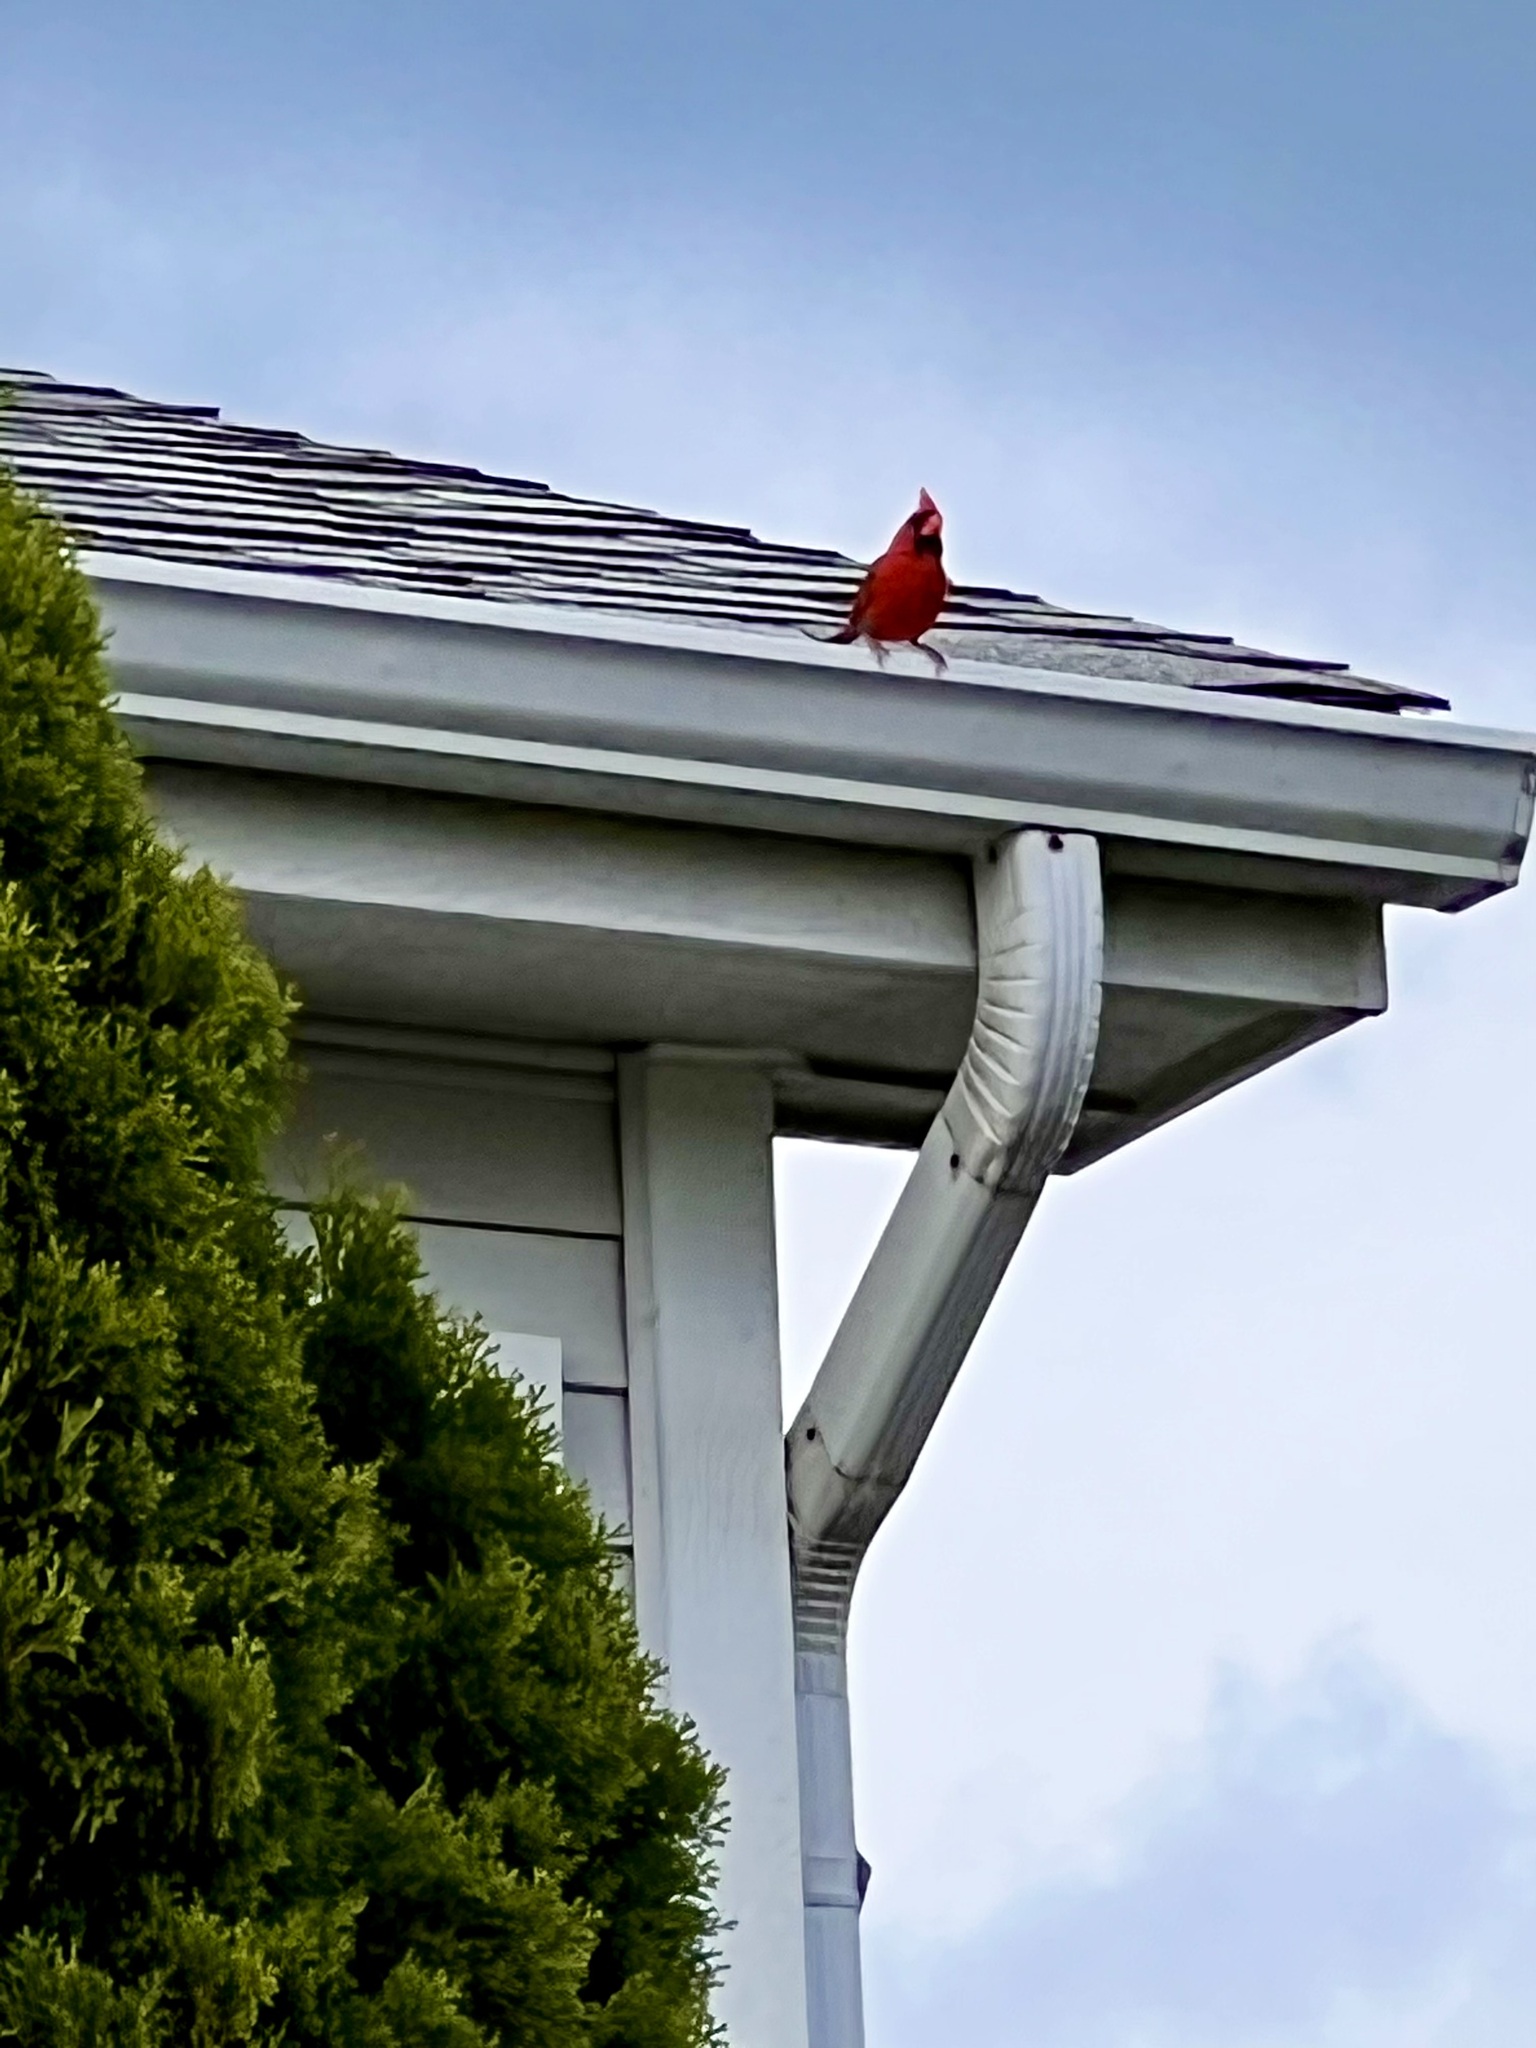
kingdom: Animalia
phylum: Chordata
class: Aves
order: Passeriformes
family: Cardinalidae
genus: Cardinalis
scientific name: Cardinalis cardinalis
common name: Northern cardinal
